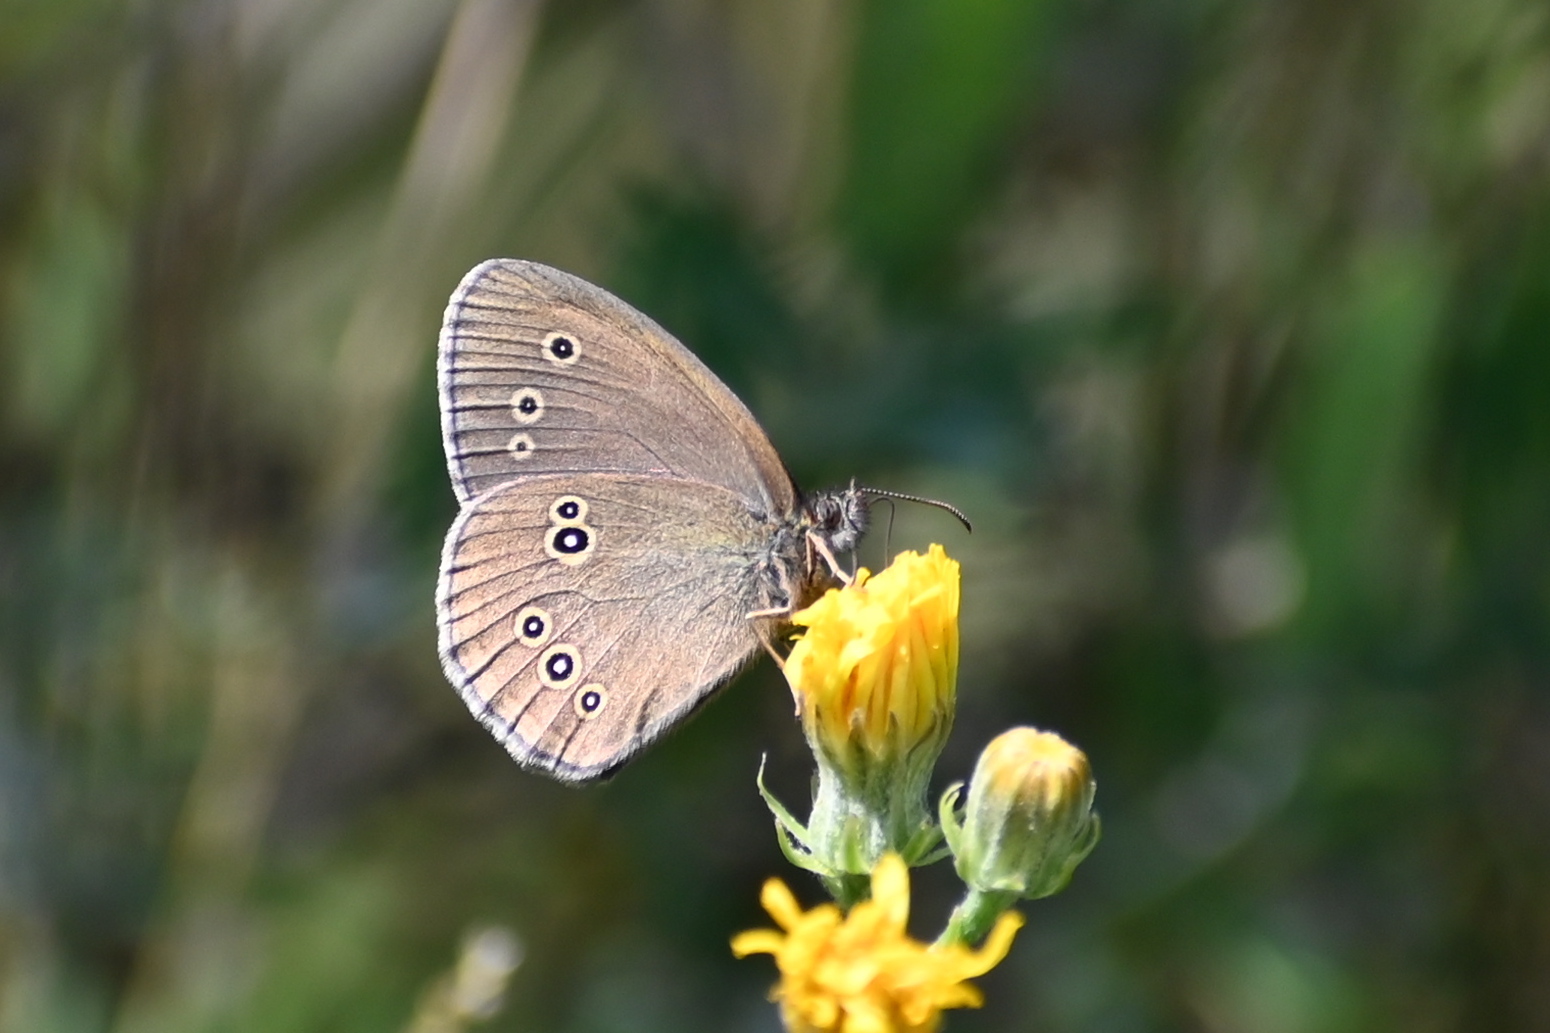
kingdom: Animalia
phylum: Arthropoda
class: Insecta
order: Lepidoptera
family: Nymphalidae
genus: Aphantopus
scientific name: Aphantopus hyperantus
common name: Ringlet
